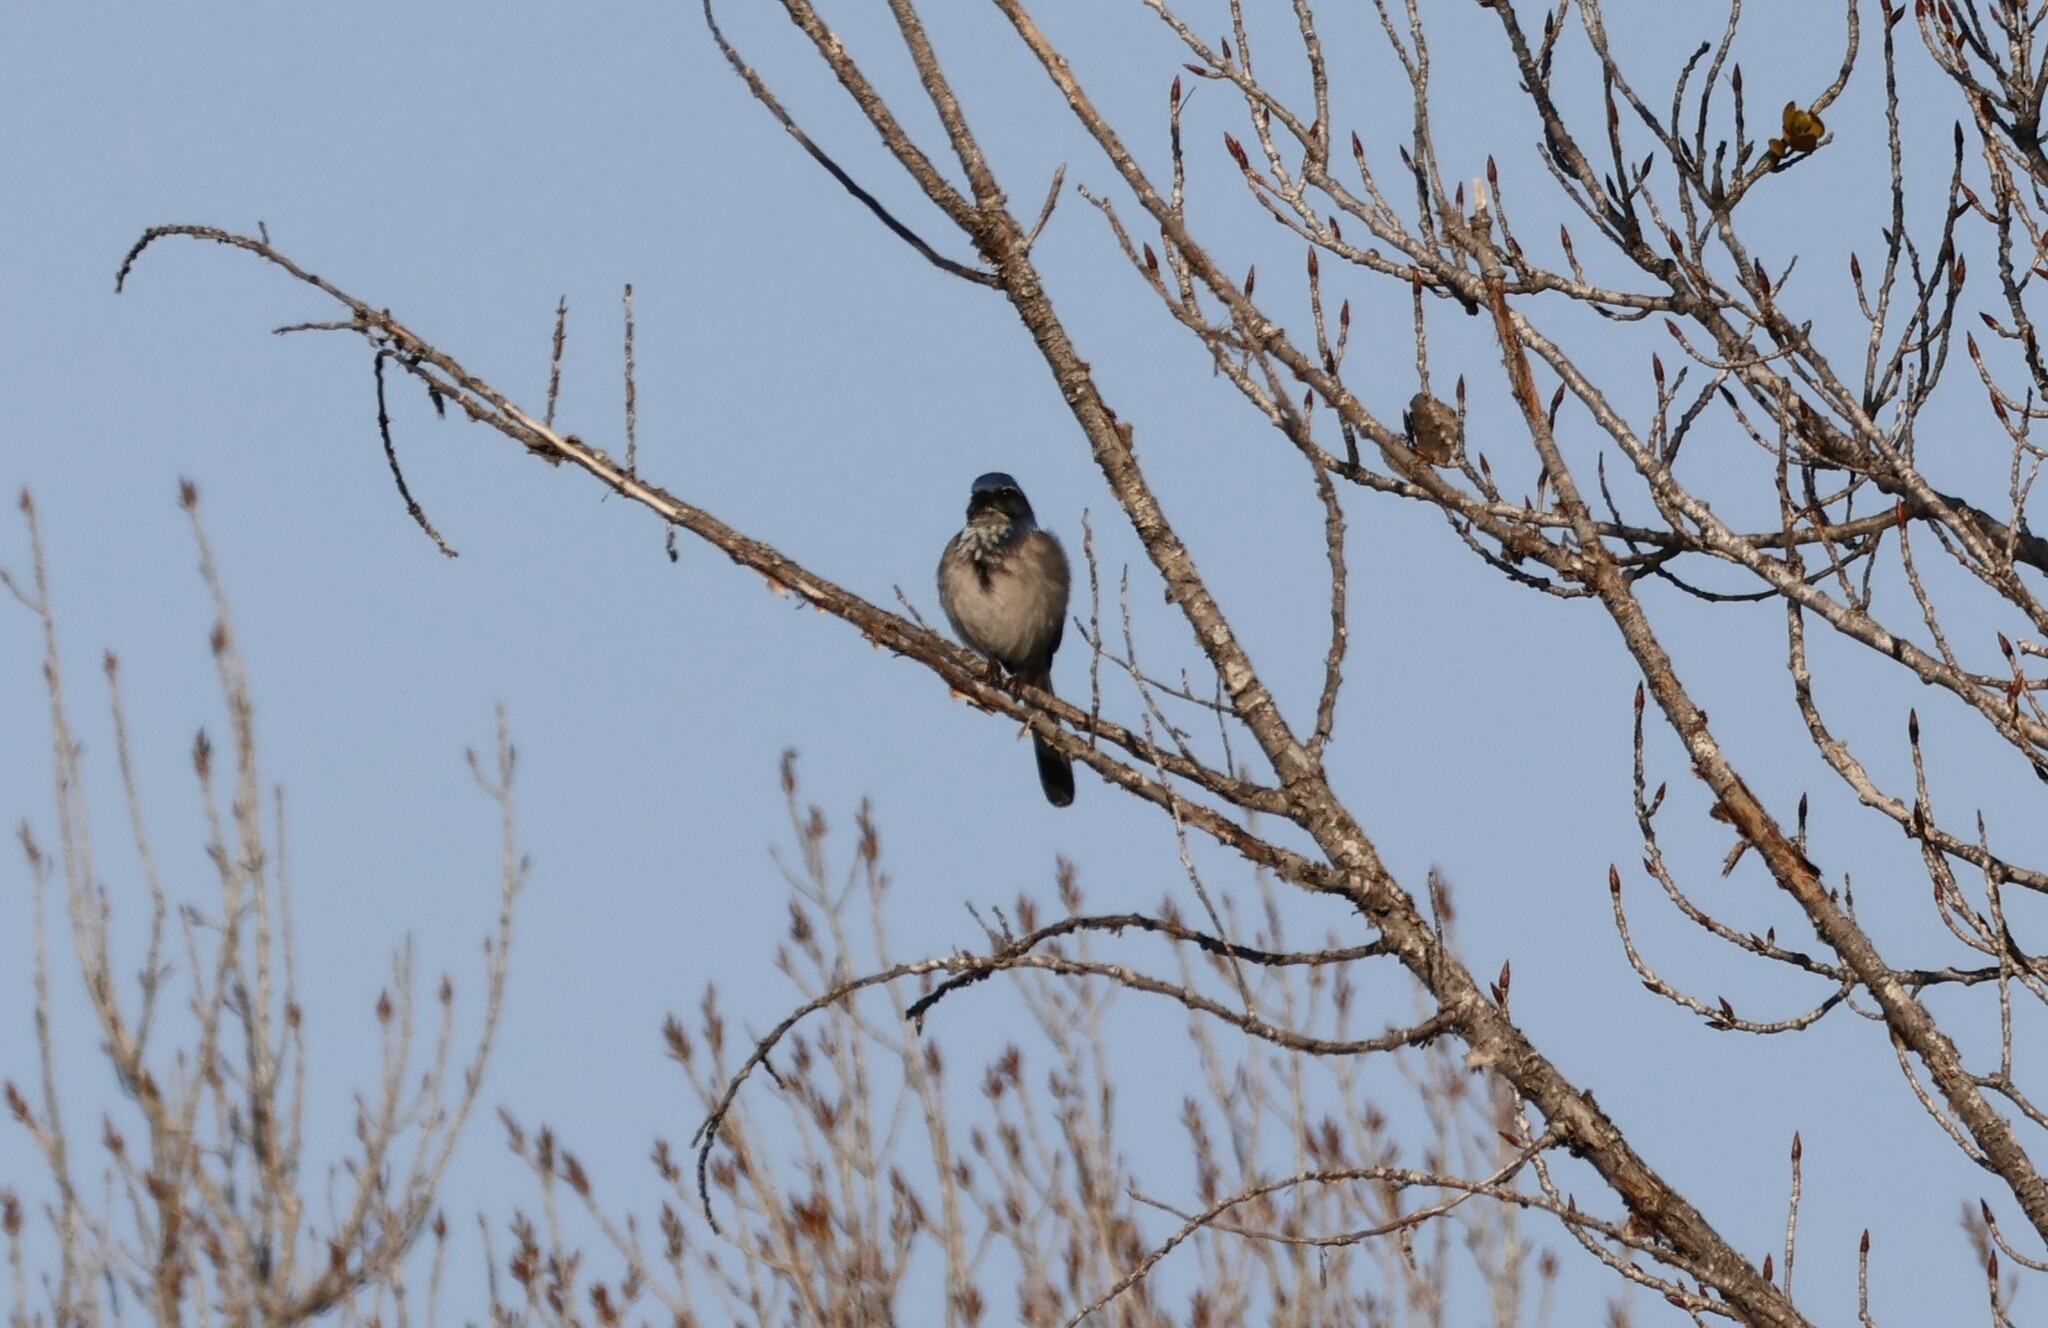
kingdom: Animalia
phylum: Chordata
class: Aves
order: Passeriformes
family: Corvidae
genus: Aphelocoma
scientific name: Aphelocoma californica
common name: California scrub-jay
